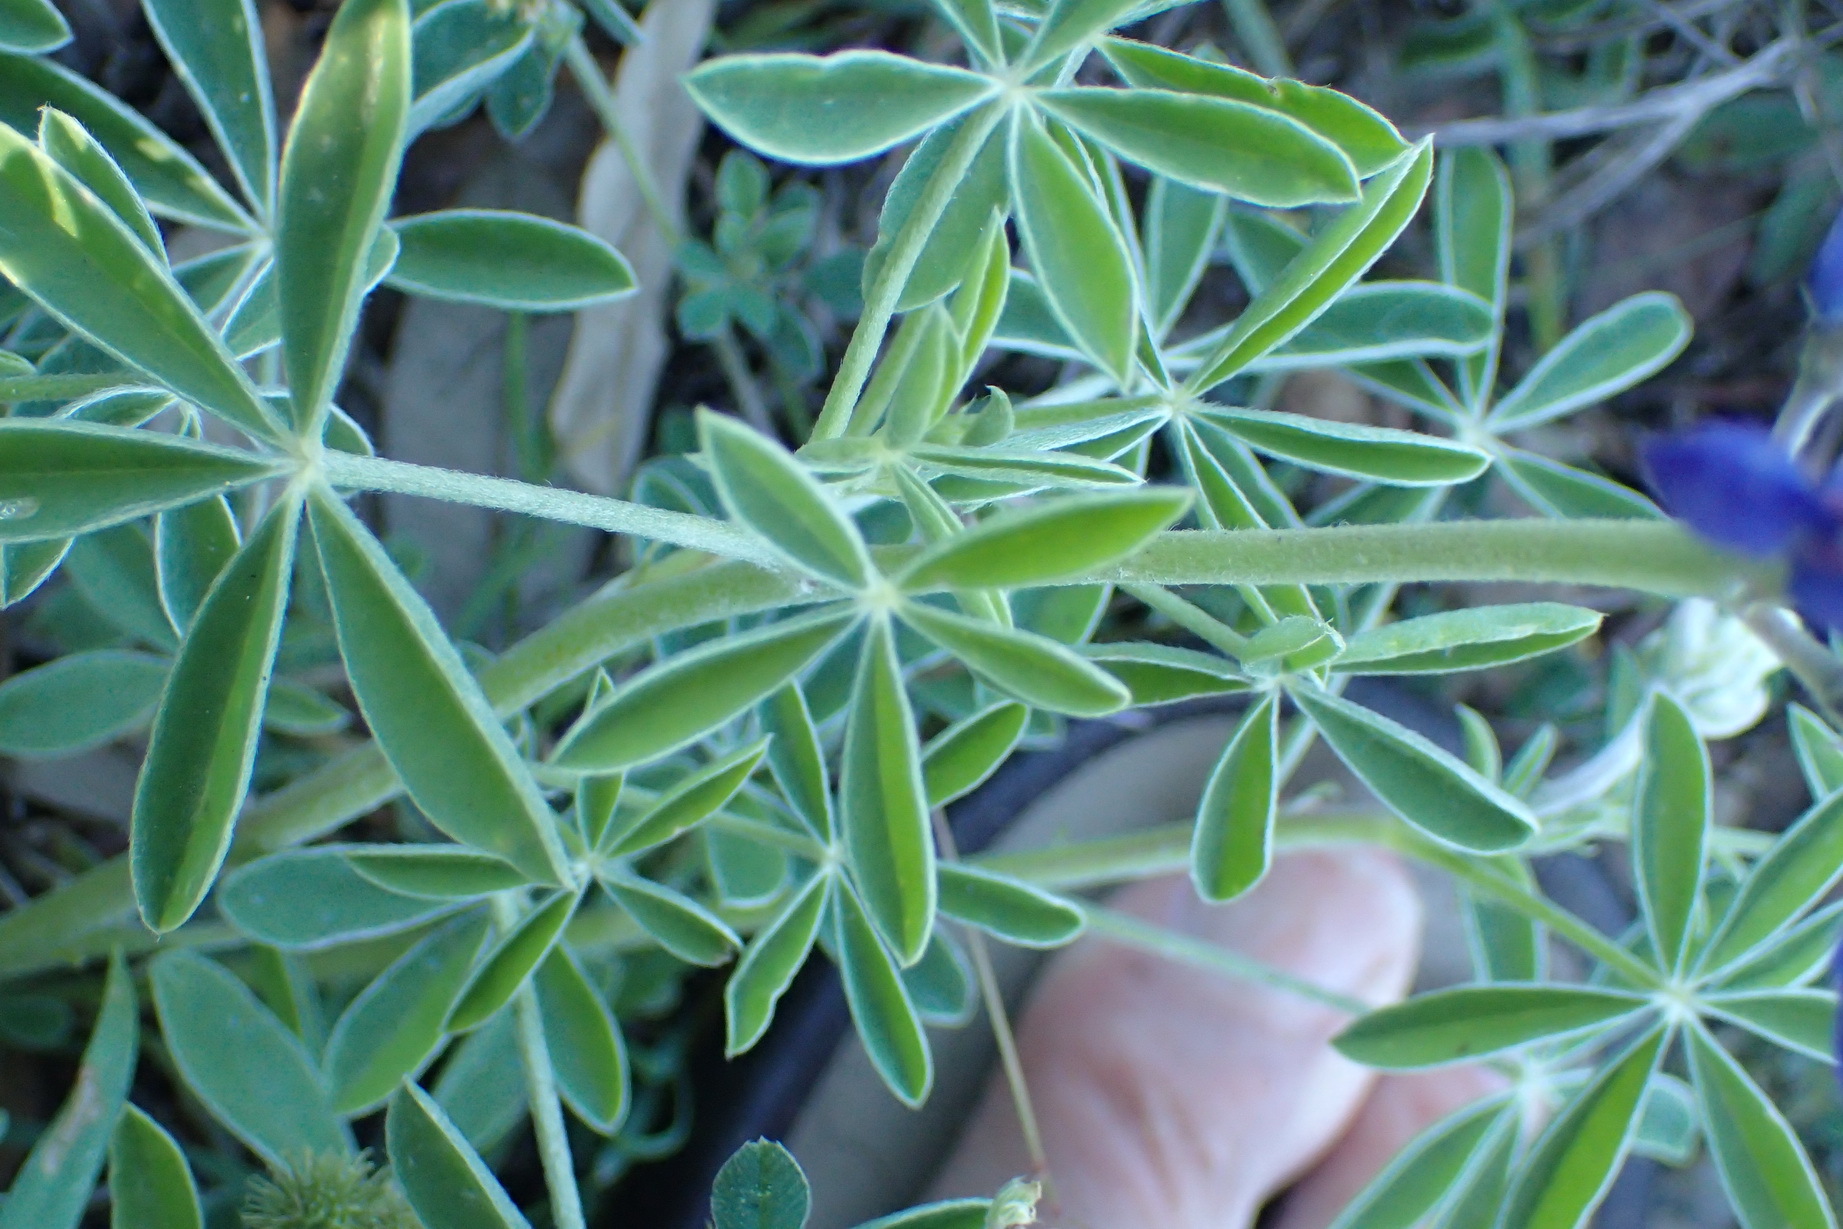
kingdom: Plantae
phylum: Tracheophyta
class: Magnoliopsida
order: Fabales
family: Fabaceae
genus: Lupinus
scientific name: Lupinus texensis
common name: Texas bluebonnet
